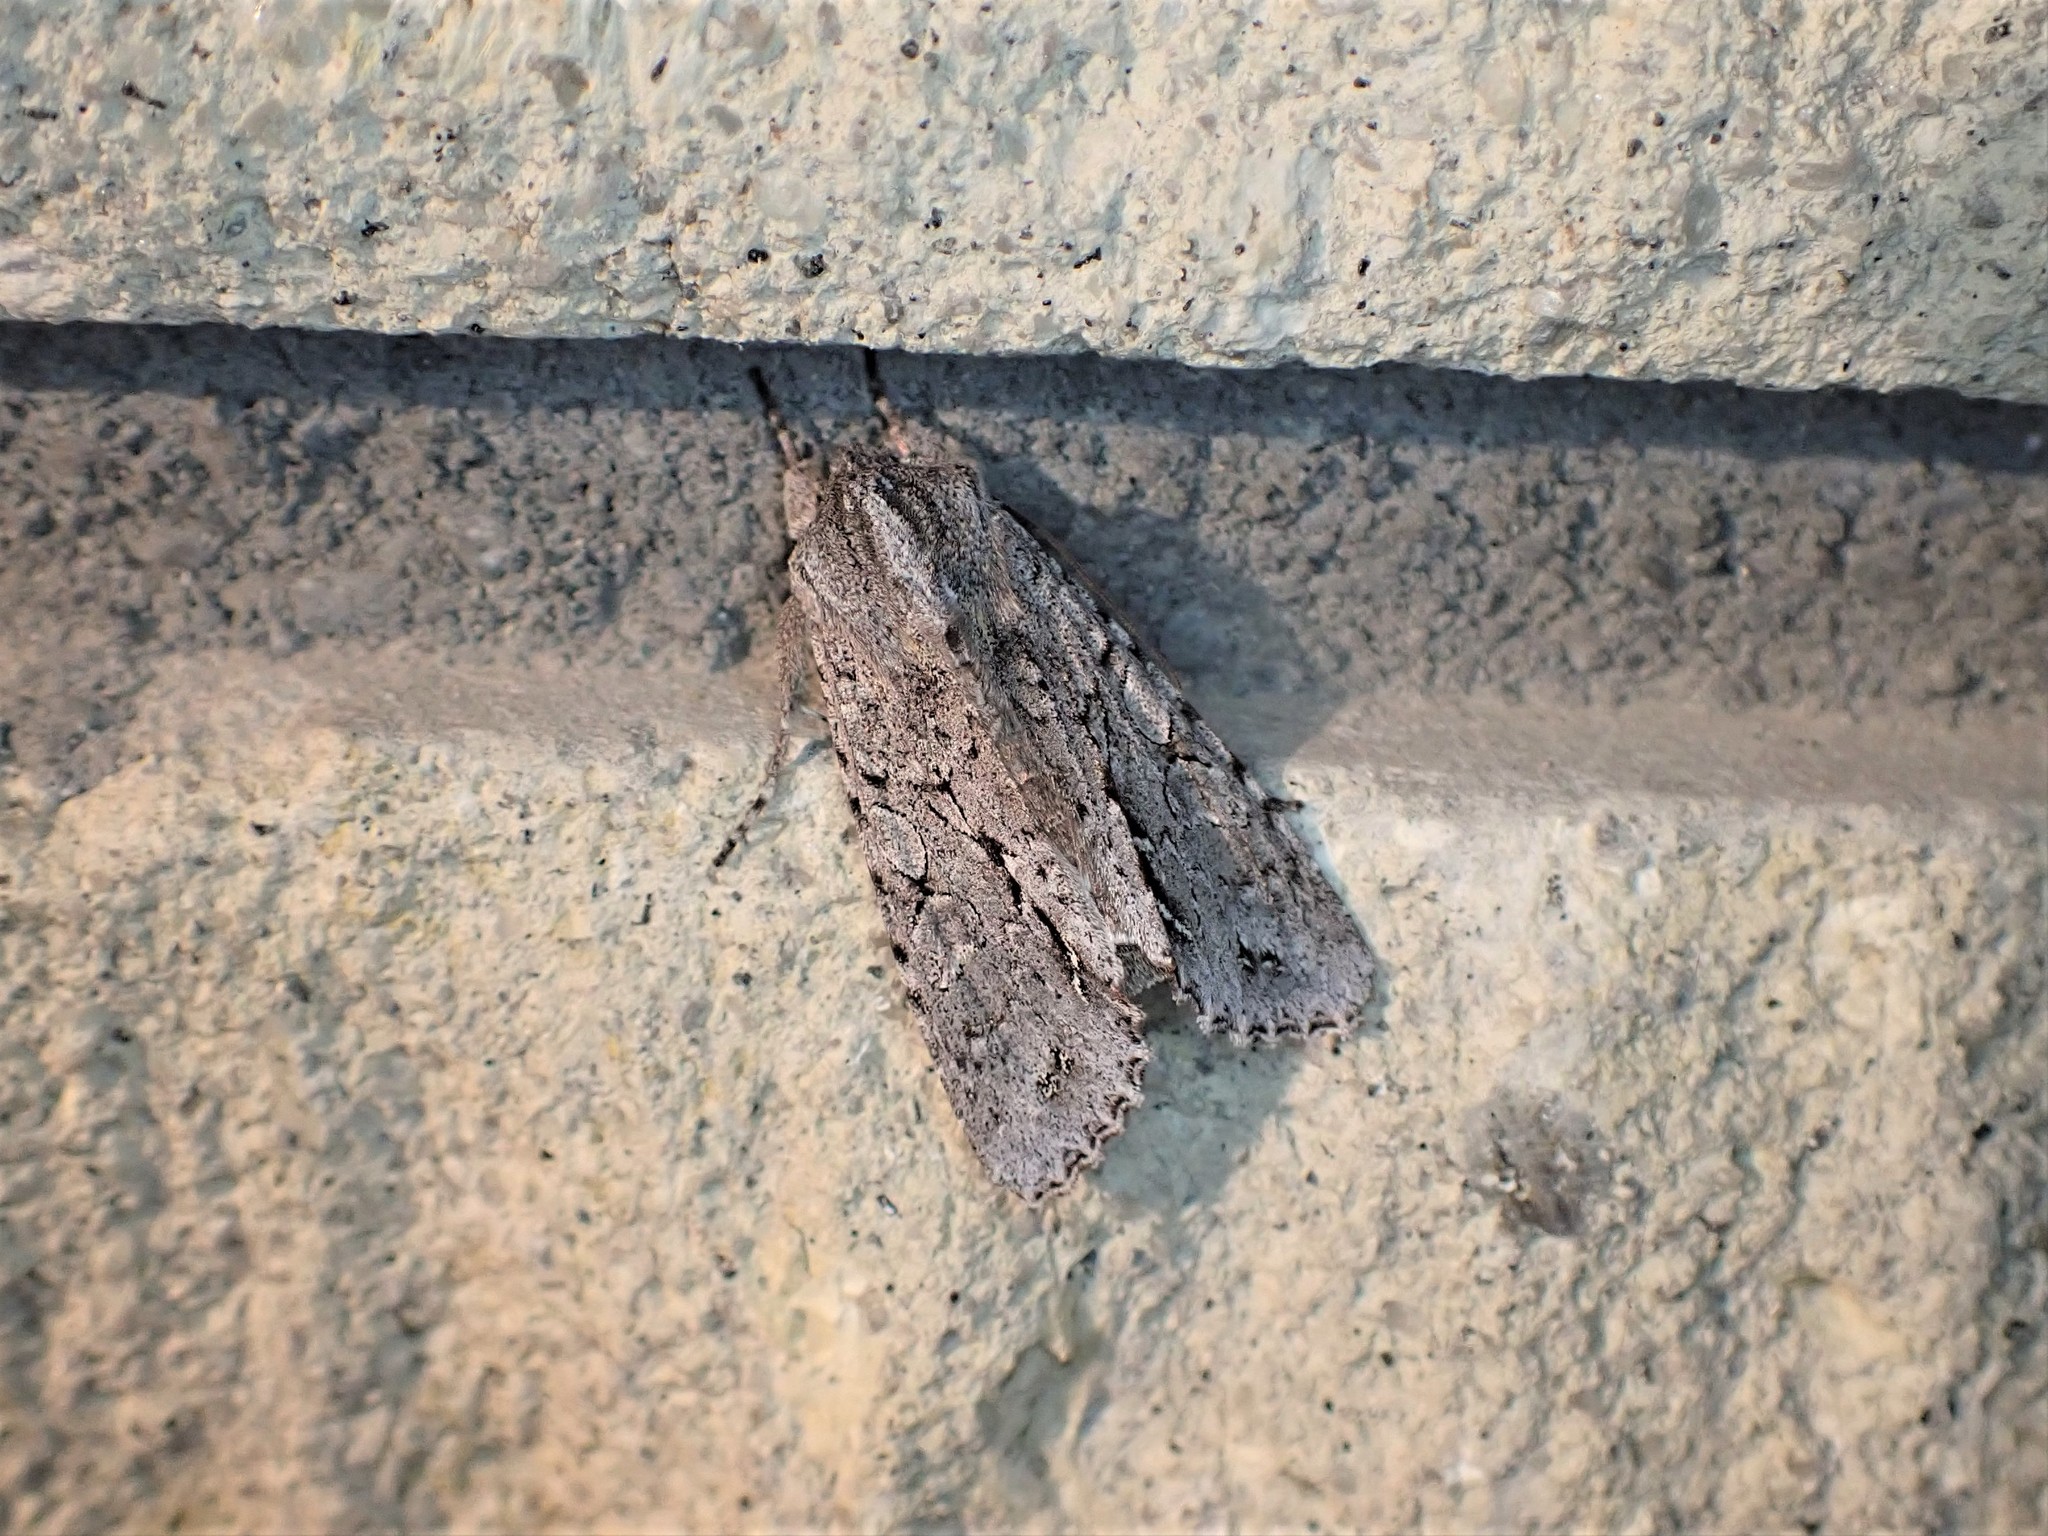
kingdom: Animalia
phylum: Arthropoda
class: Insecta
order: Lepidoptera
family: Noctuidae
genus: Ichneutica
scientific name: Ichneutica
